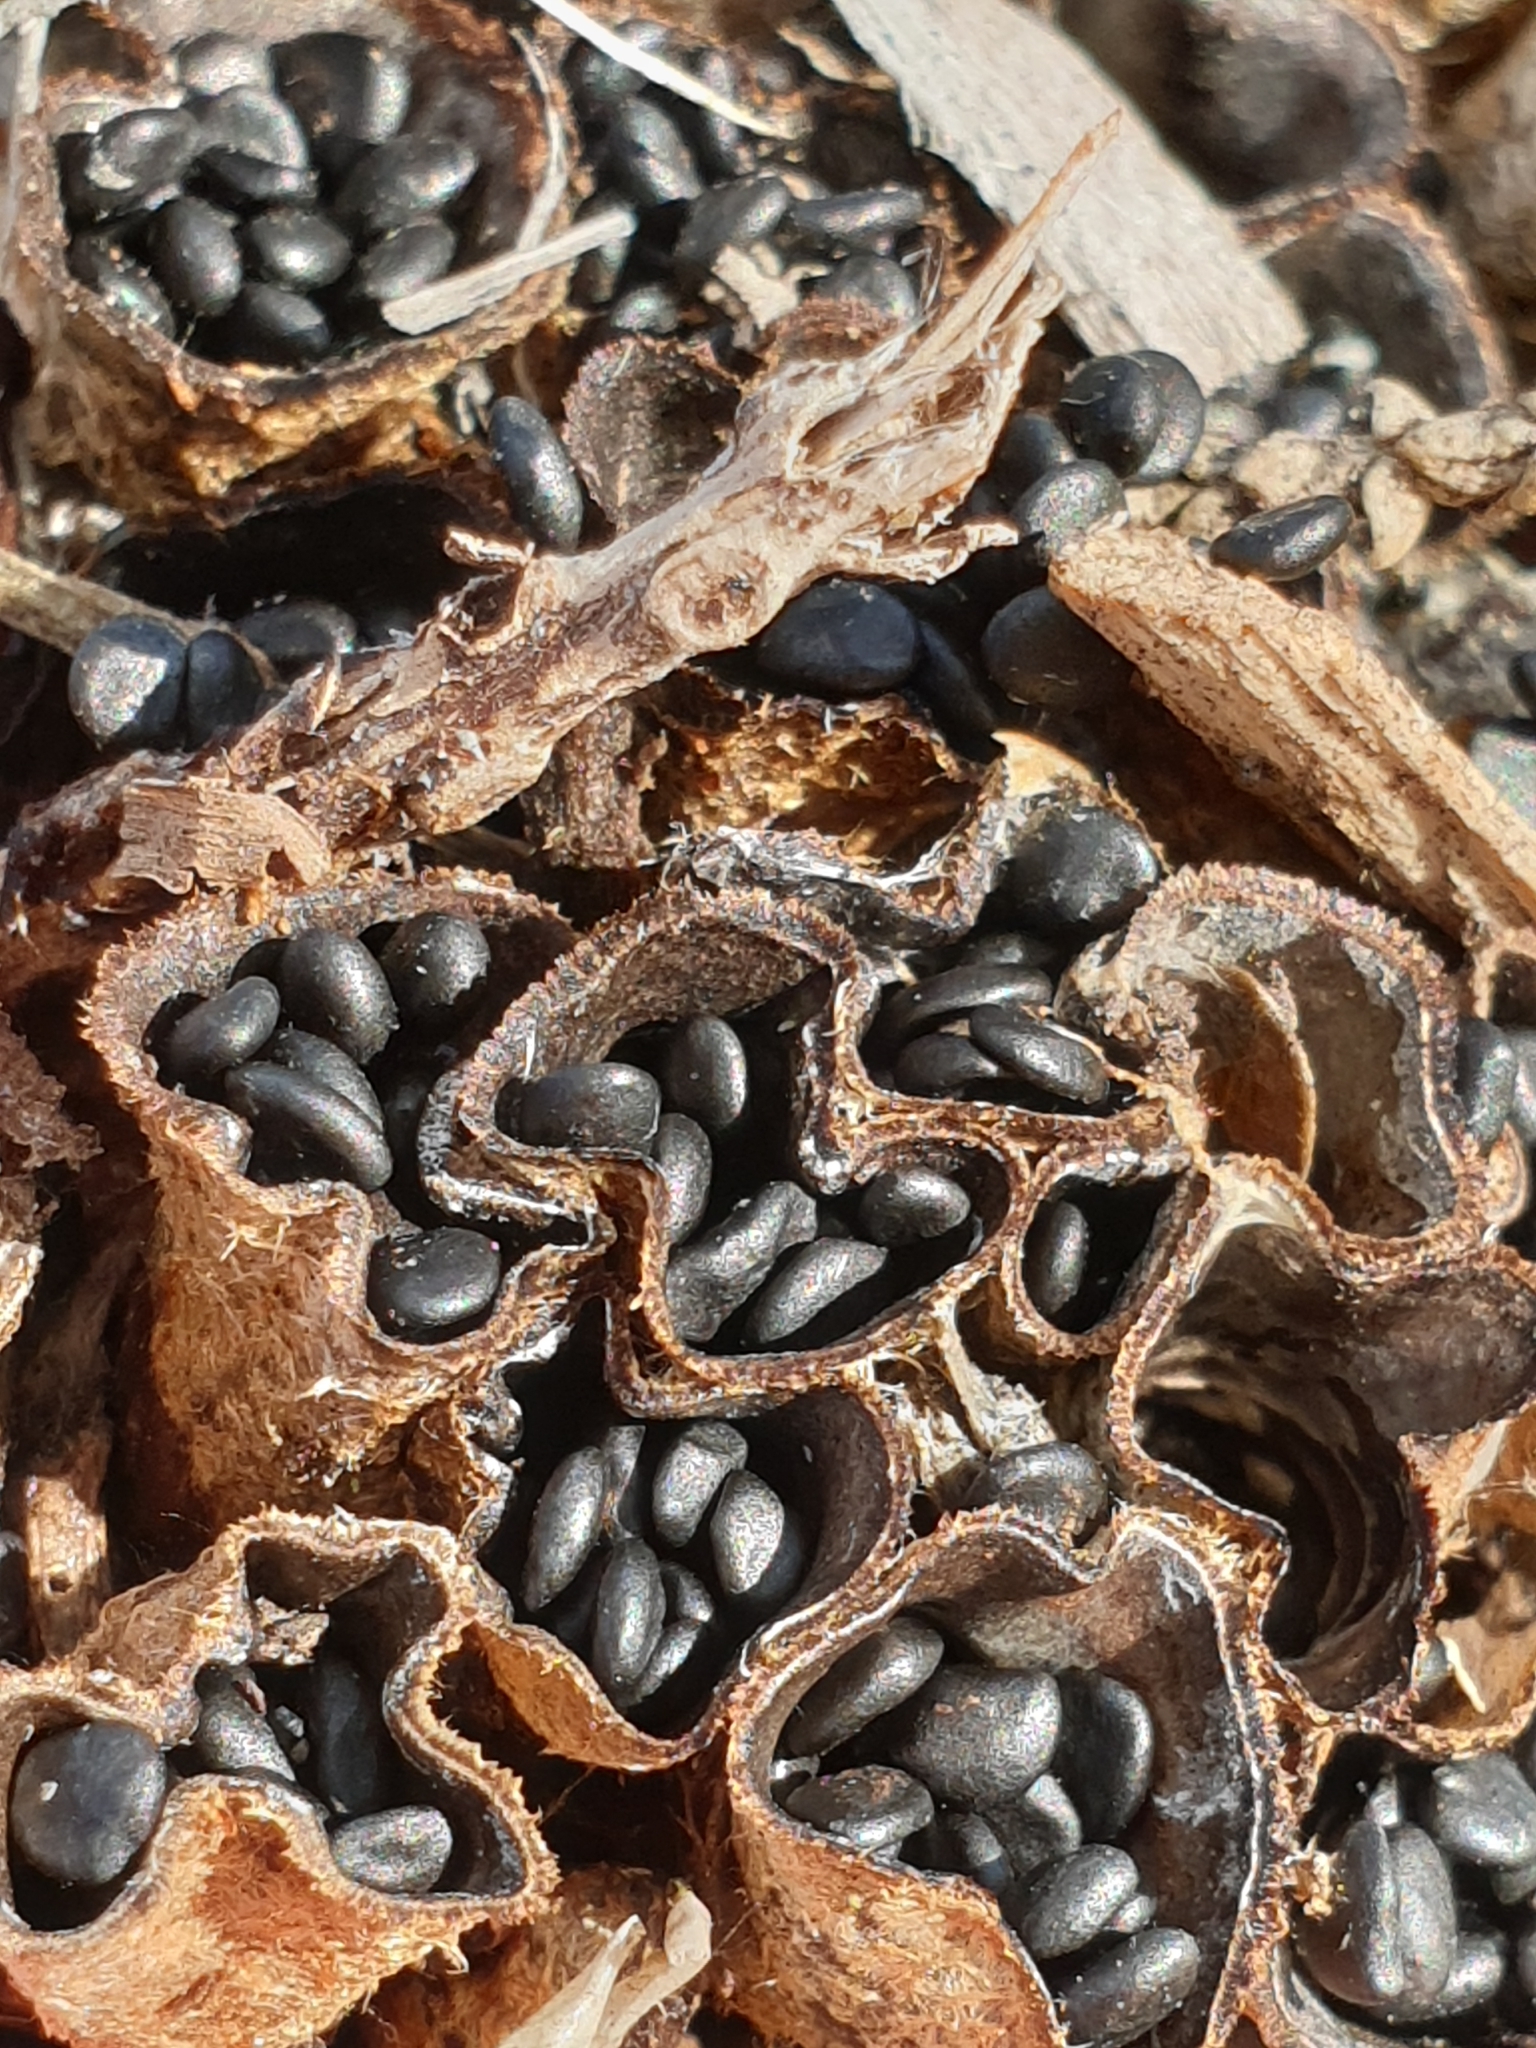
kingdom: Fungi
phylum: Basidiomycota
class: Agaricomycetes
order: Agaricales
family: Agaricaceae
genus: Cyathus
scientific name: Cyathus olla
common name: Field bird's nest
